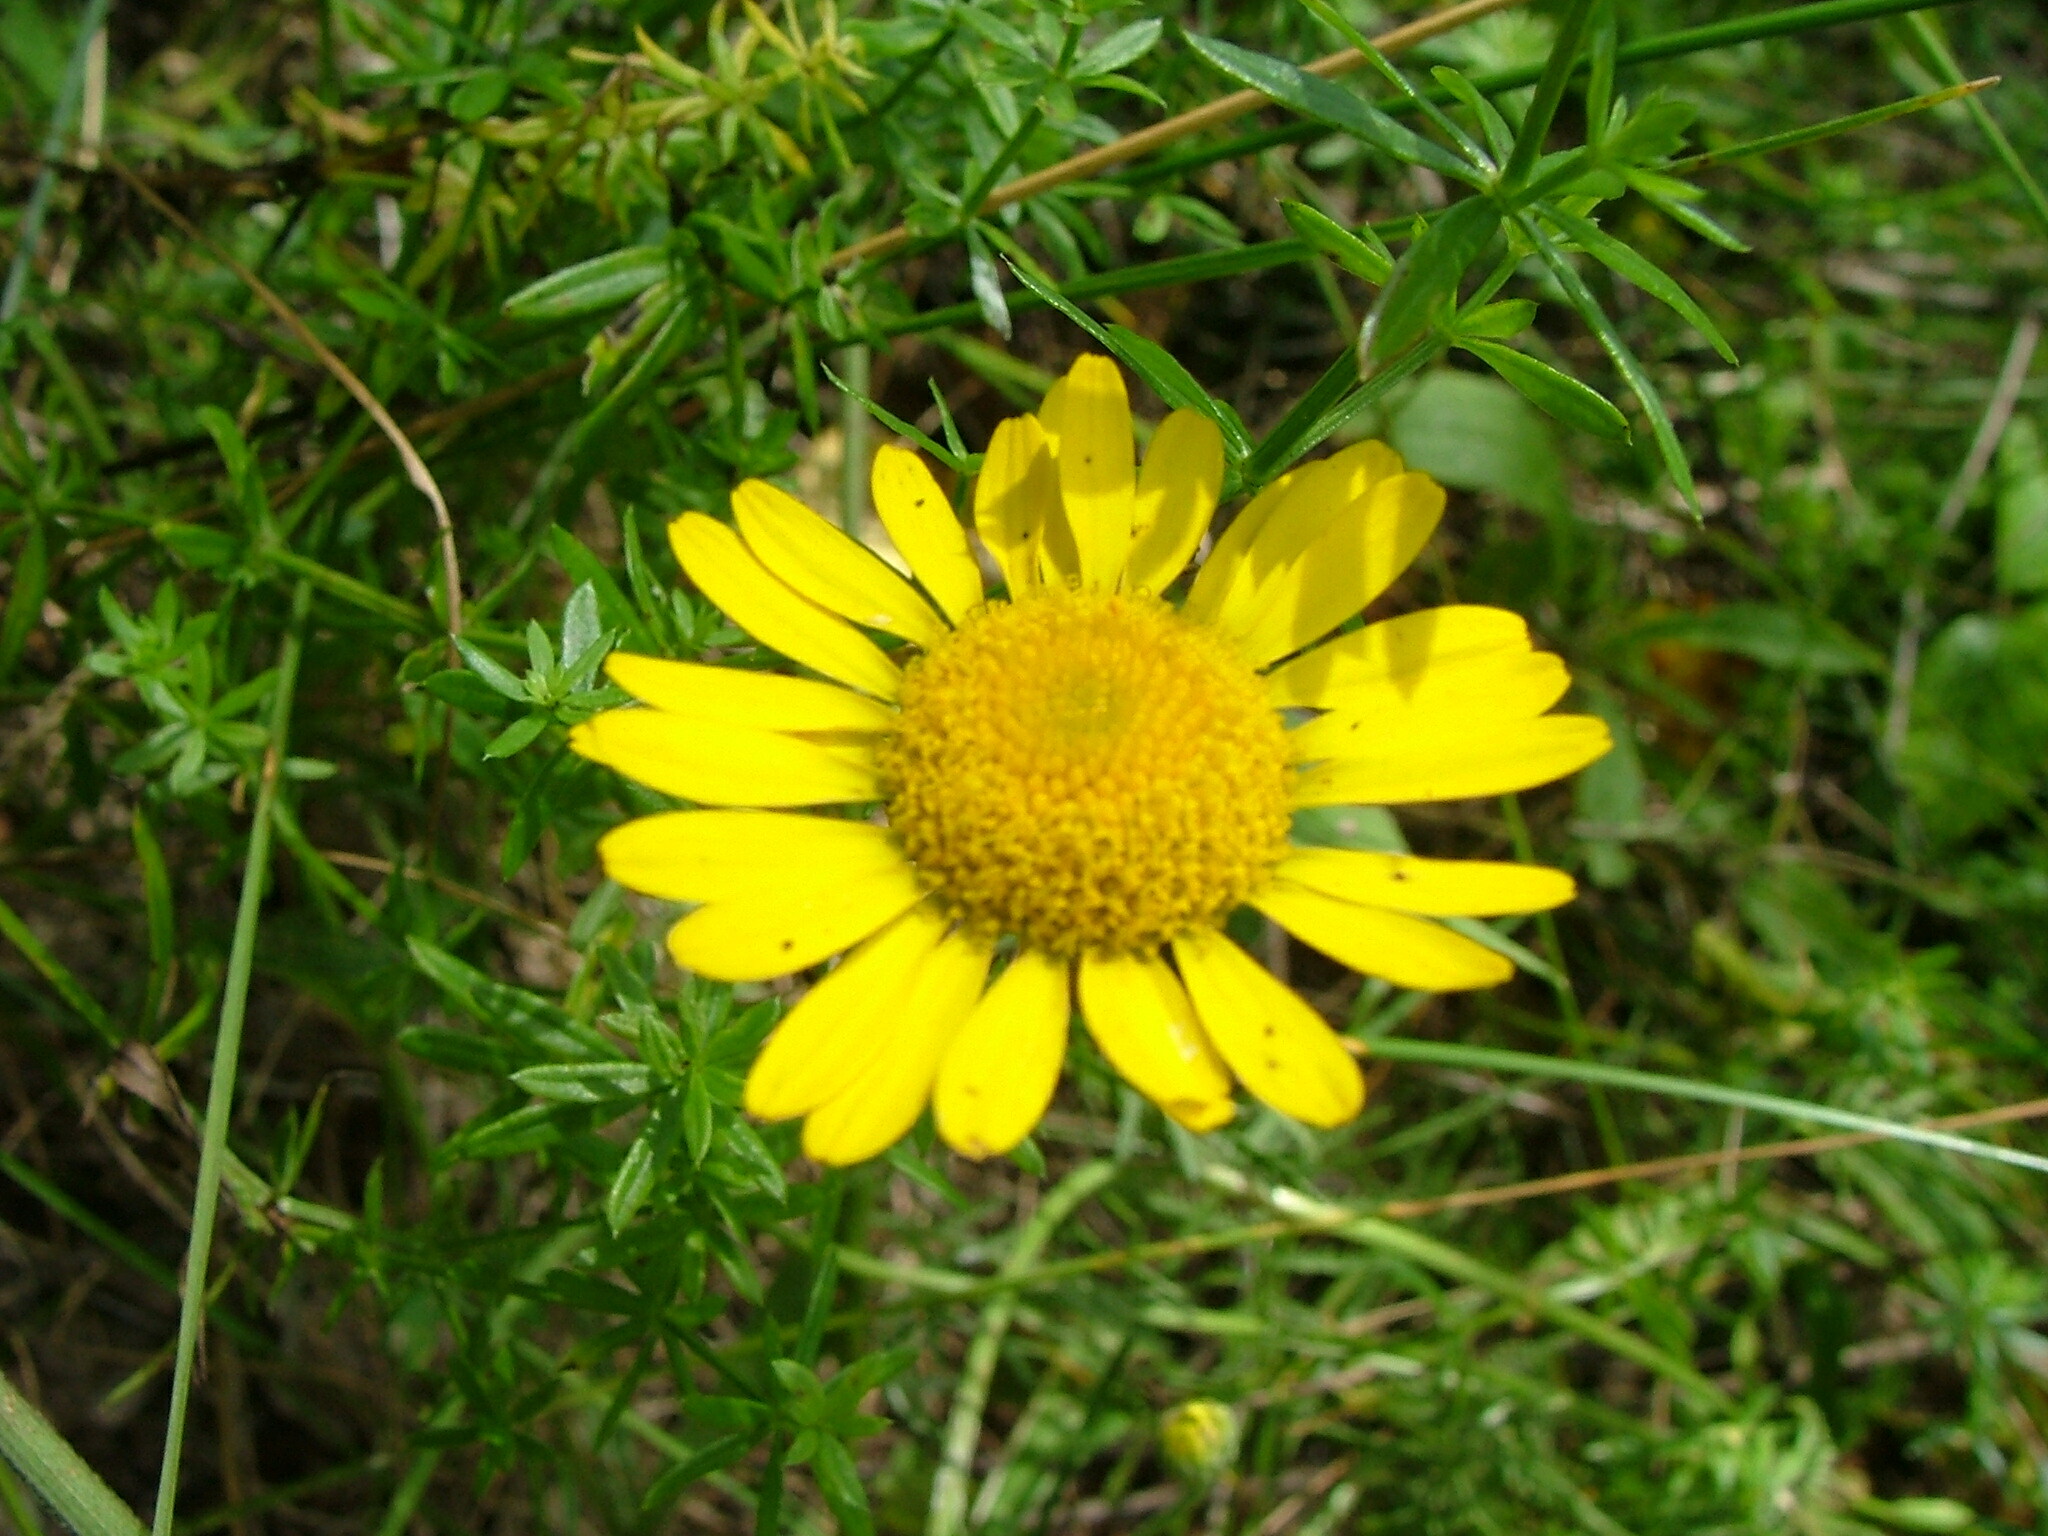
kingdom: Plantae
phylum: Tracheophyta
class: Magnoliopsida
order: Asterales
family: Asteraceae
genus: Cota
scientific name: Cota tinctoria
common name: Golden chamomile
